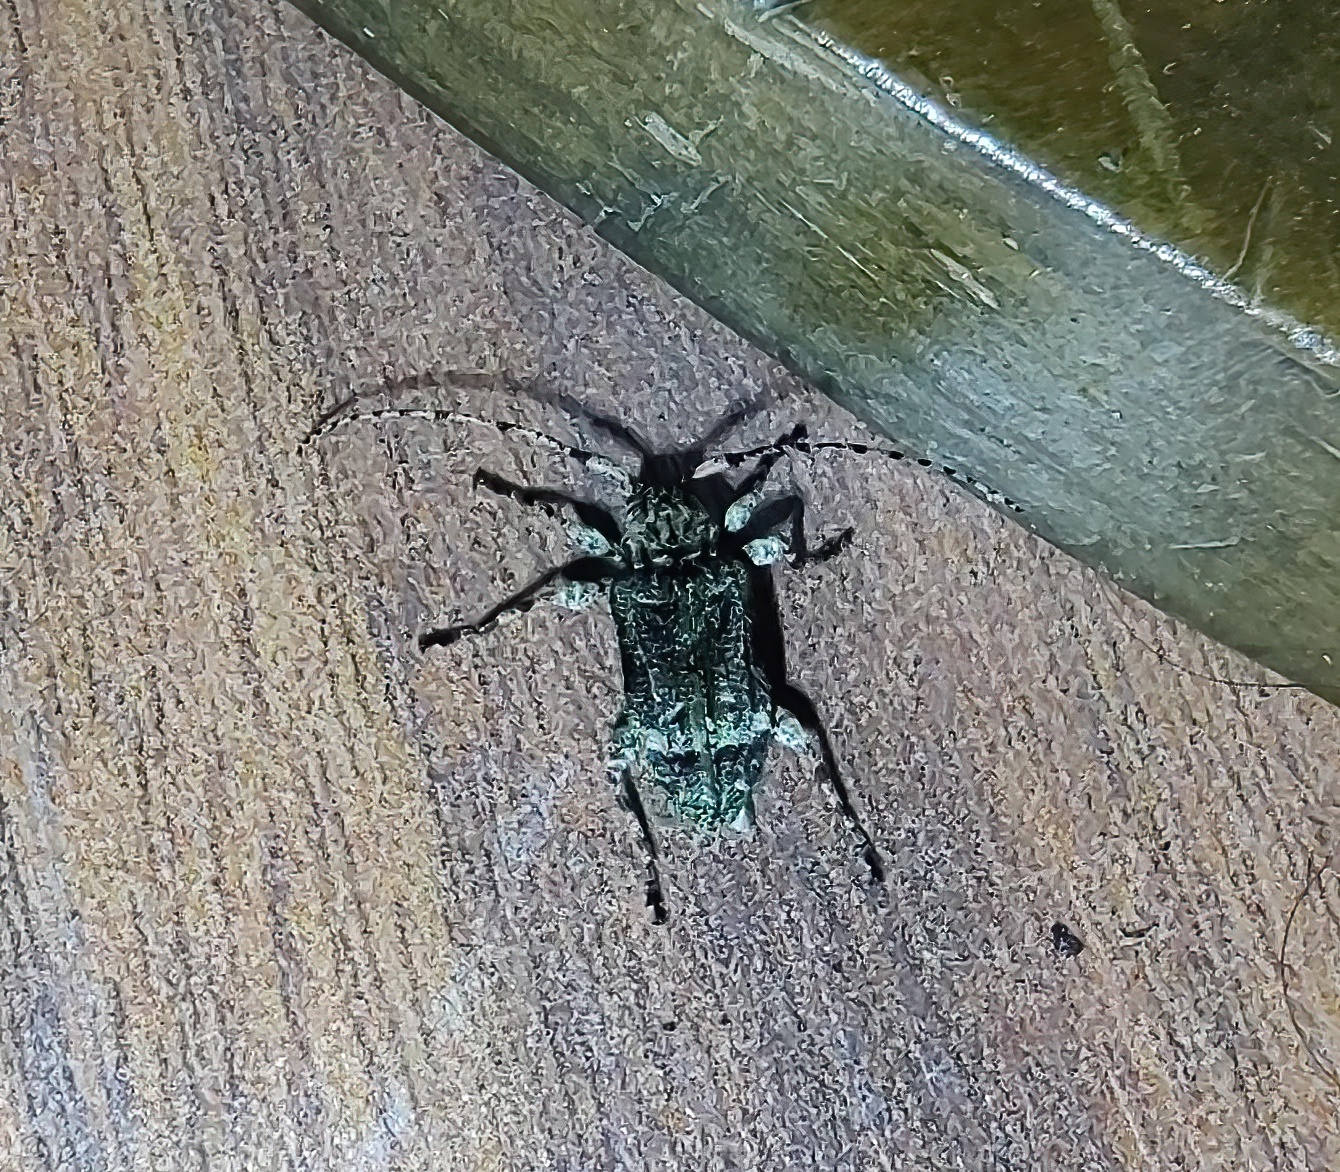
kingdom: Animalia
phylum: Arthropoda
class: Insecta
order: Coleoptera
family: Cerambycidae
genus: Leptostylus
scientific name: Leptostylus transversus
